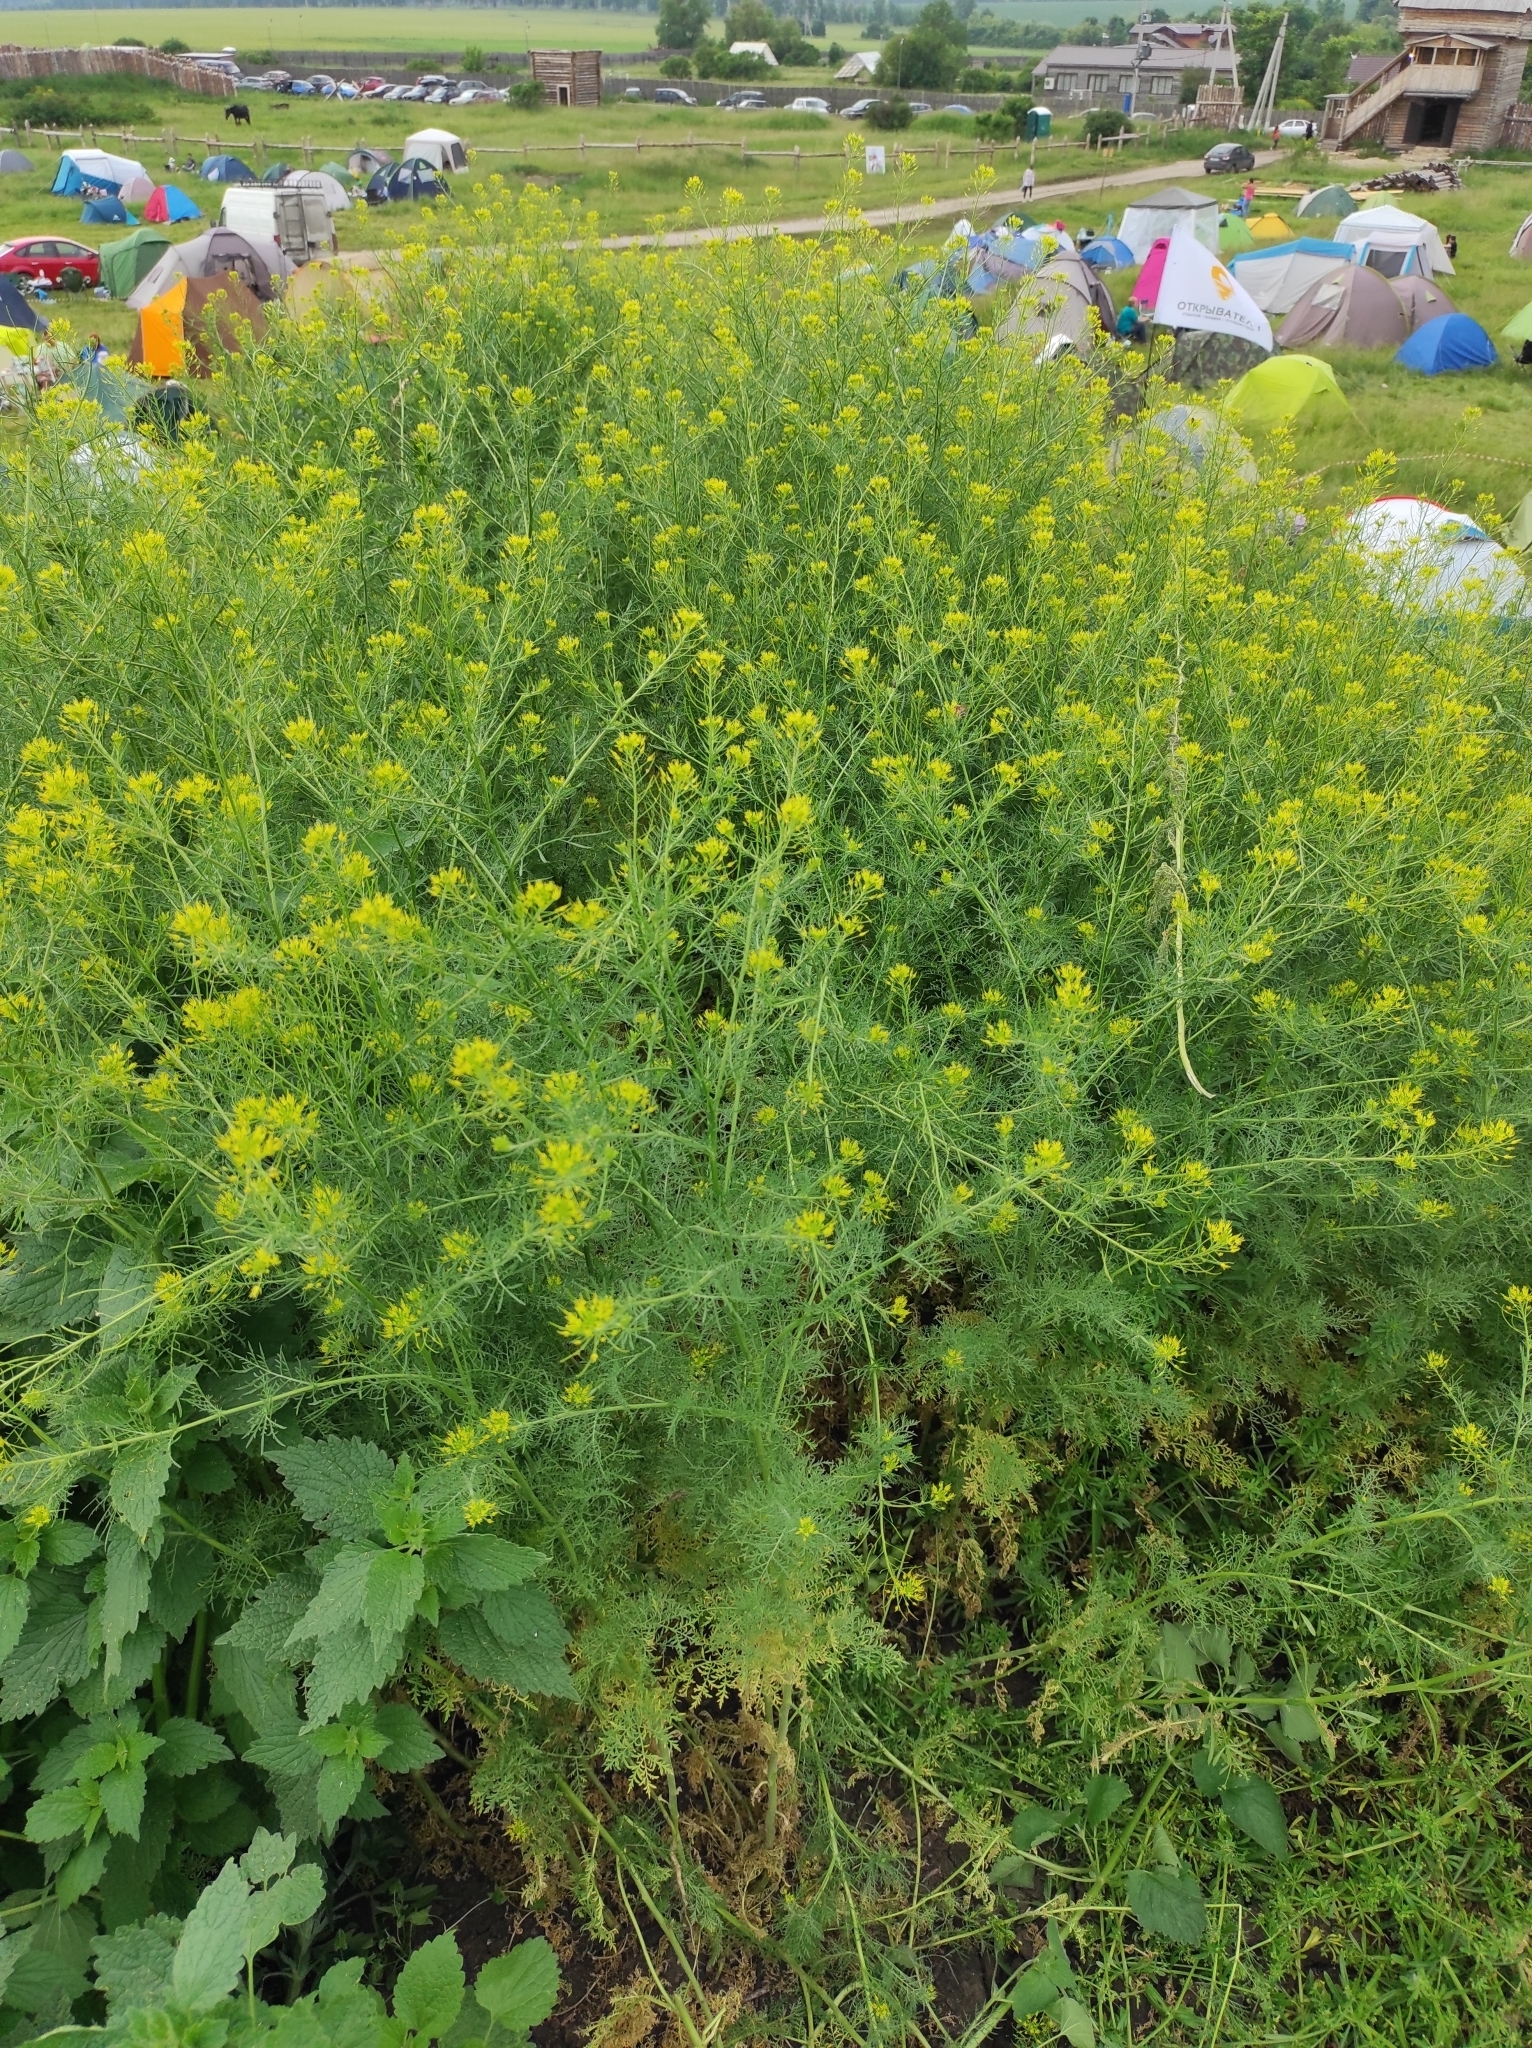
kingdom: Plantae
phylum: Tracheophyta
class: Magnoliopsida
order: Brassicales
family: Brassicaceae
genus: Descurainia
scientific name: Descurainia sophia
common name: Flixweed
